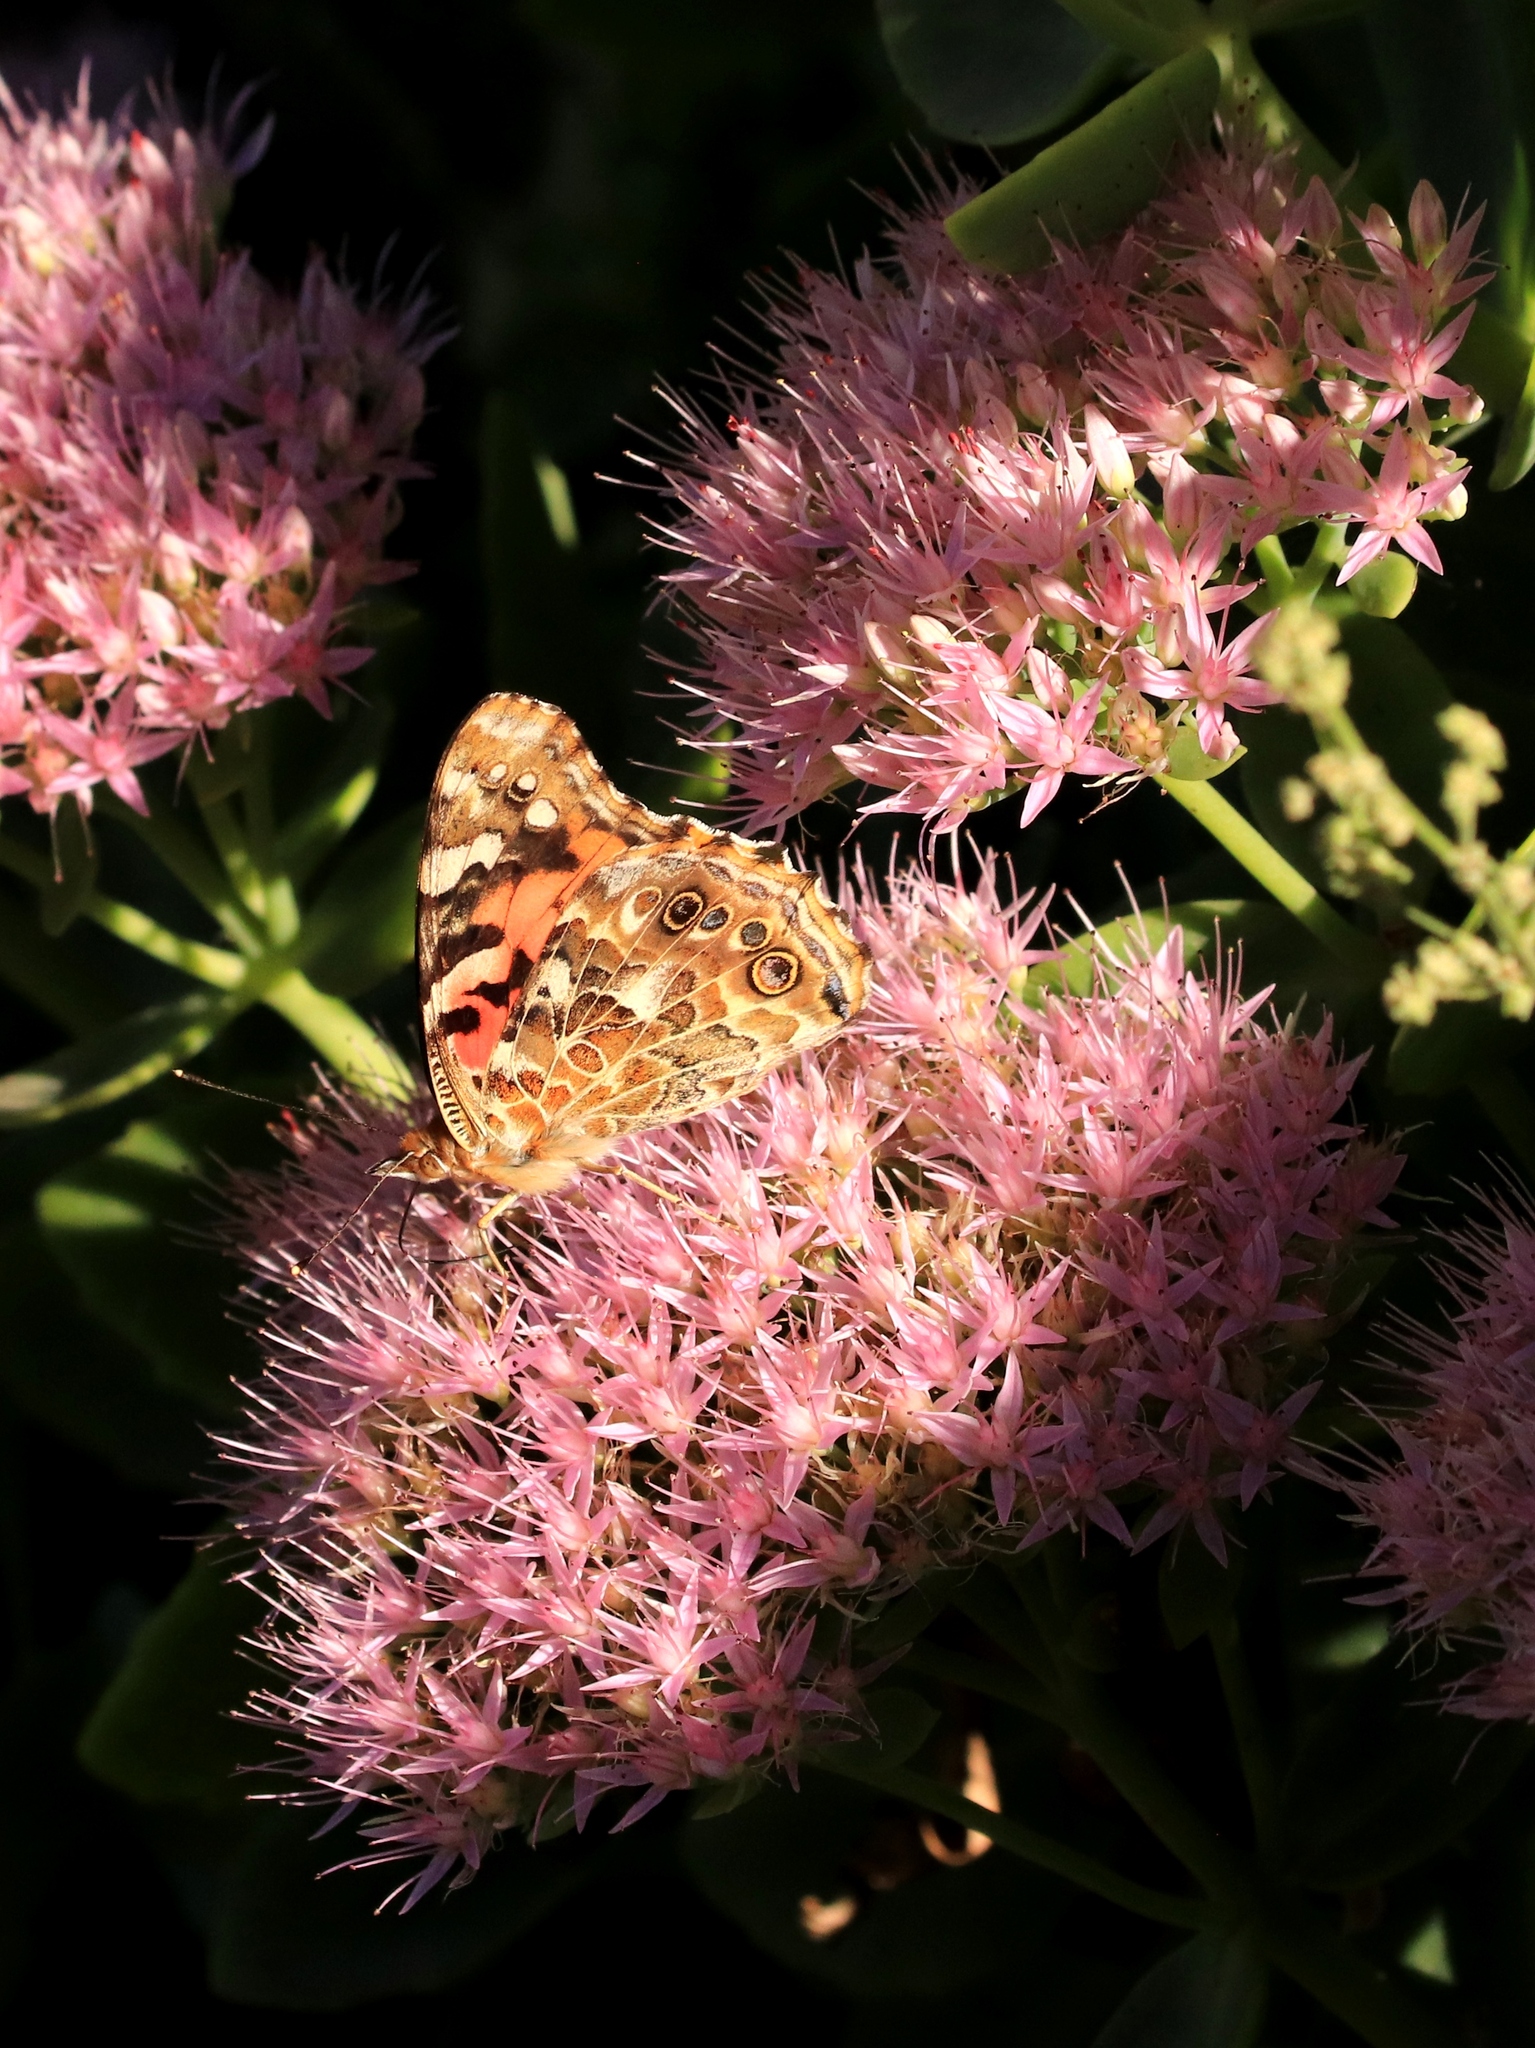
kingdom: Animalia
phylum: Arthropoda
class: Insecta
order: Lepidoptera
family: Nymphalidae
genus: Vanessa
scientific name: Vanessa cardui
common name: Painted lady
